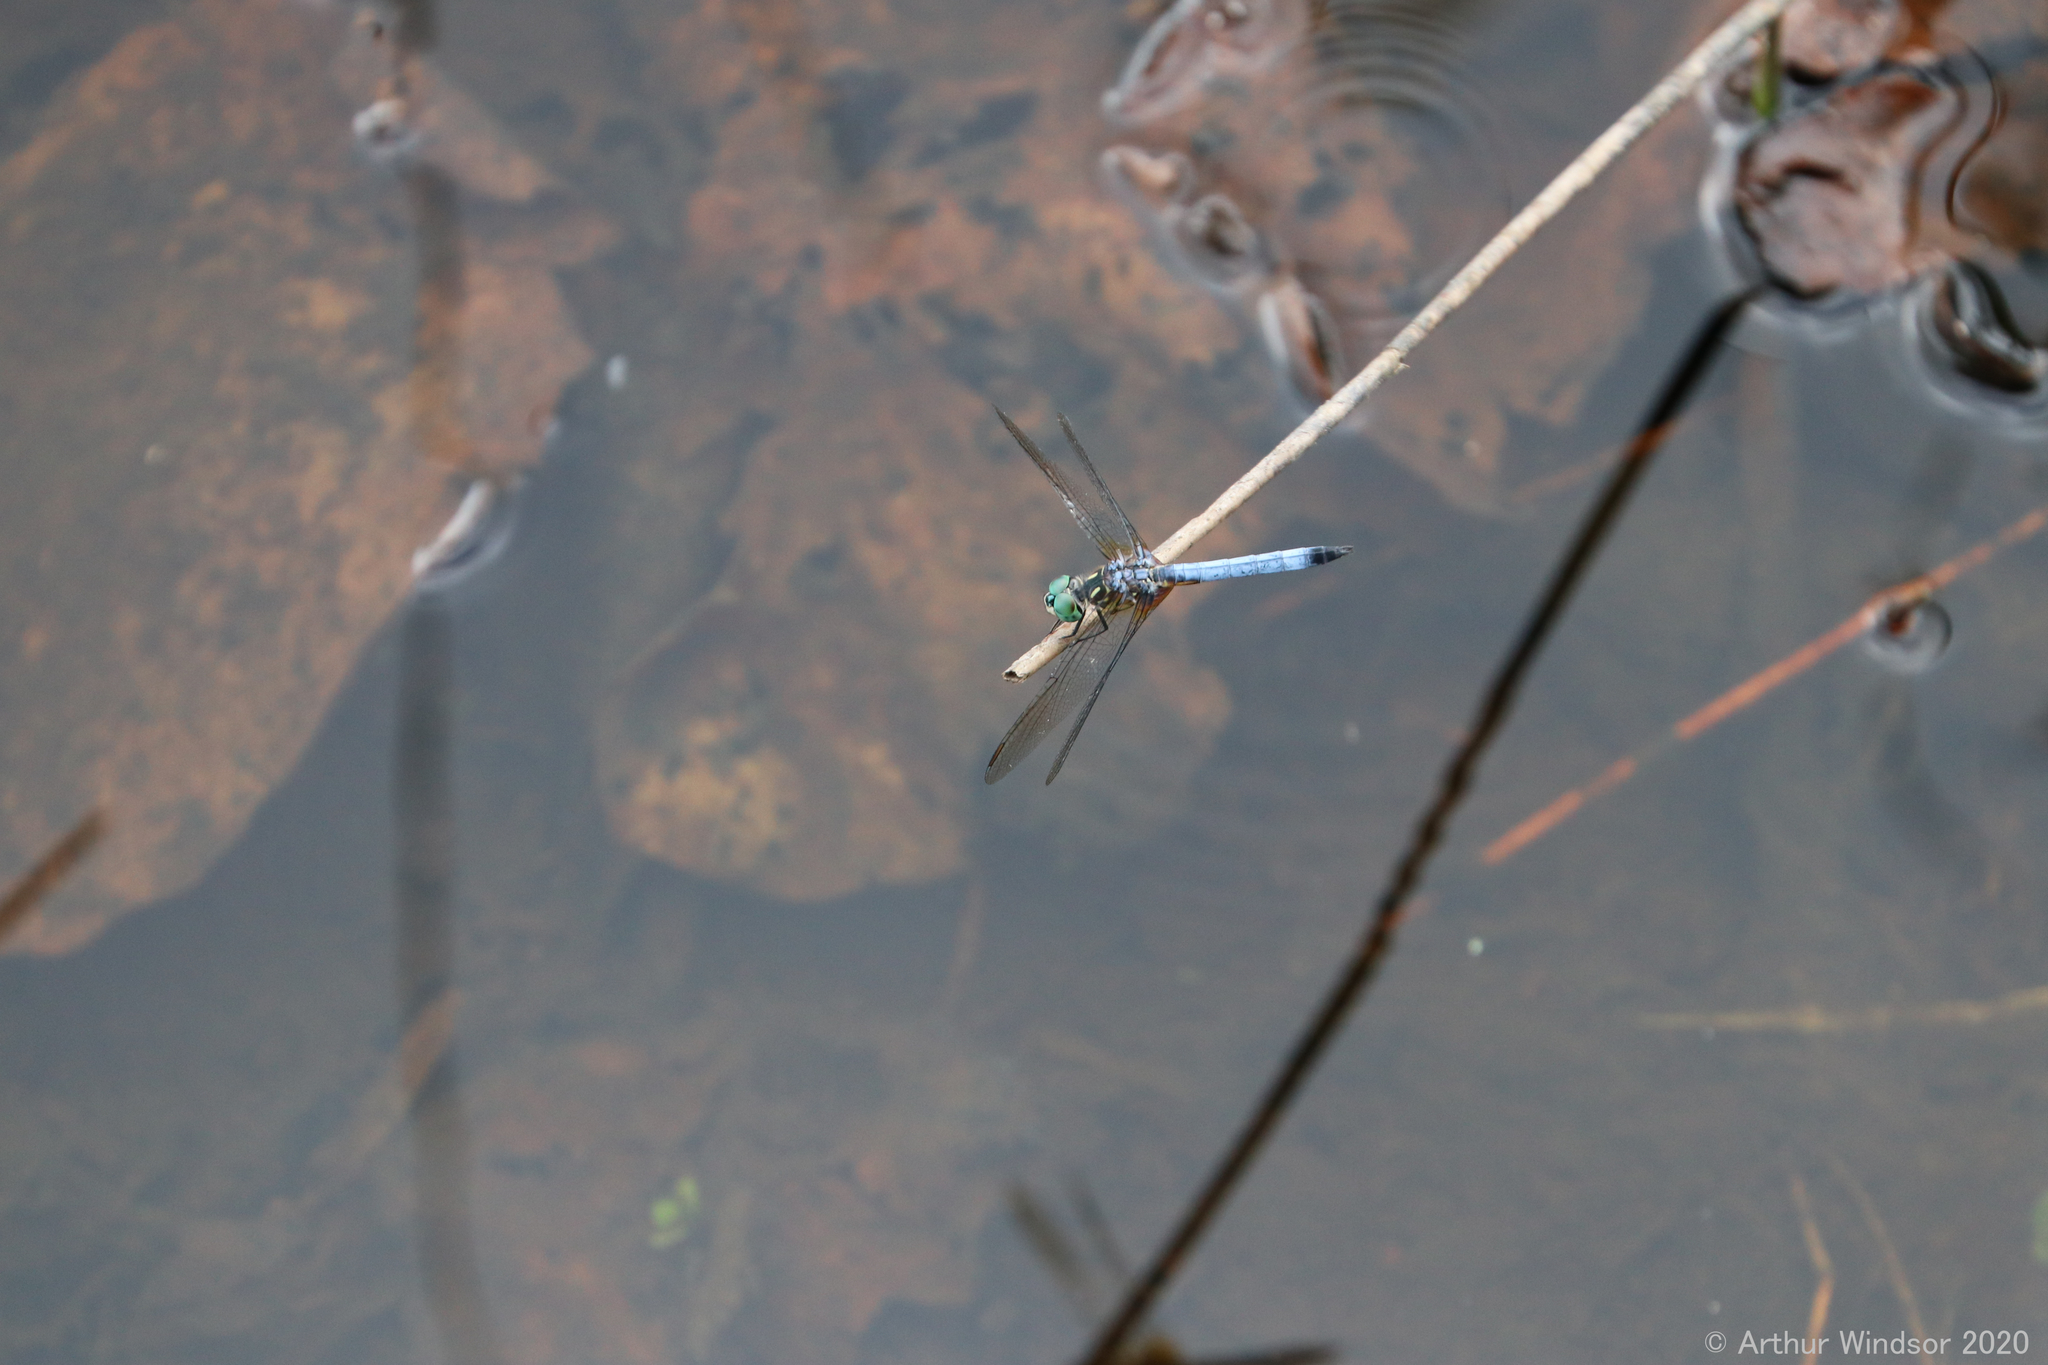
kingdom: Animalia
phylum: Arthropoda
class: Insecta
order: Odonata
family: Libellulidae
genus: Pachydiplax
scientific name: Pachydiplax longipennis
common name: Blue dasher
